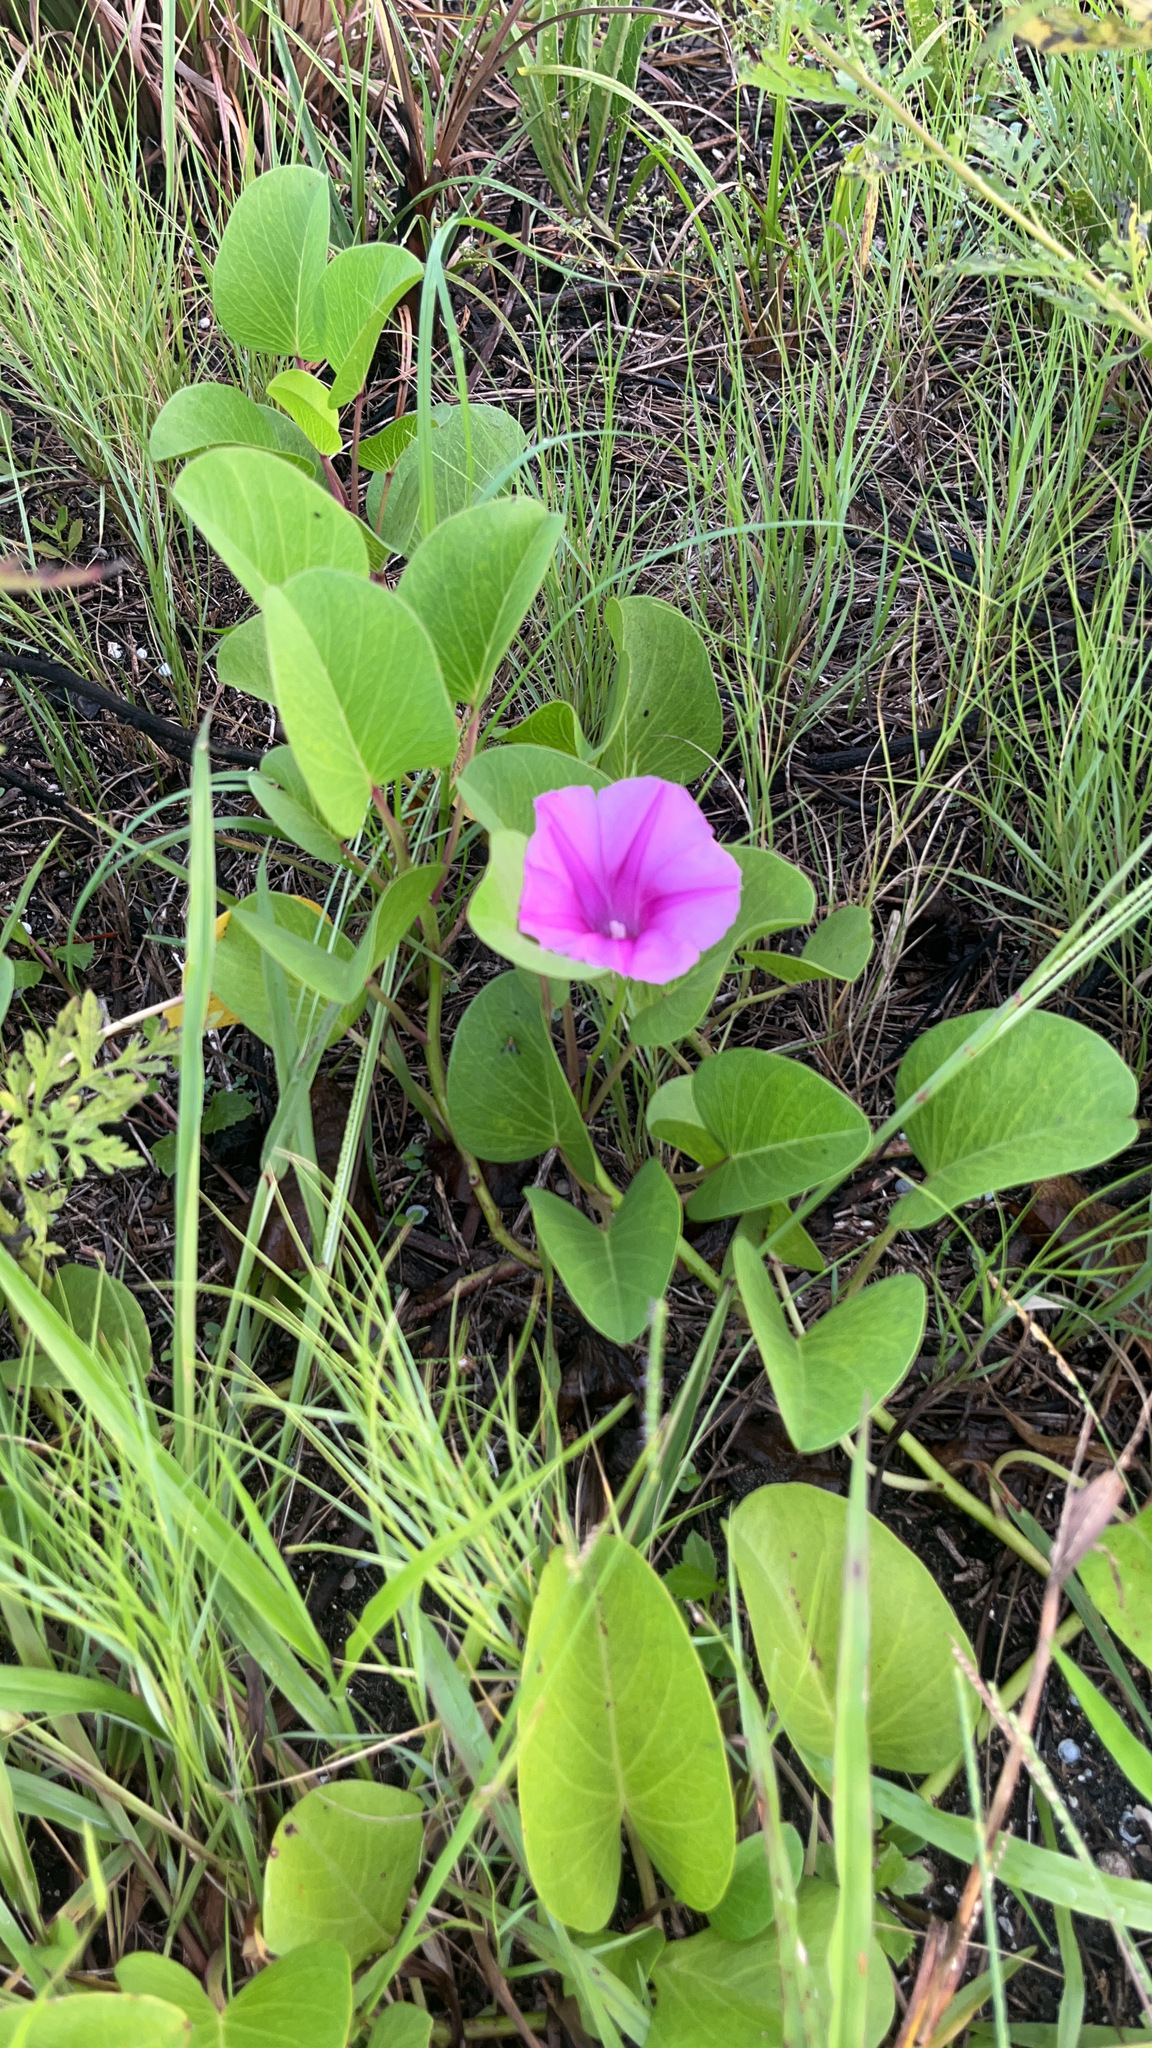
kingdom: Plantae
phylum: Tracheophyta
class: Magnoliopsida
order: Solanales
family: Convolvulaceae
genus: Ipomoea
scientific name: Ipomoea pes-caprae
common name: Beach morning glory
